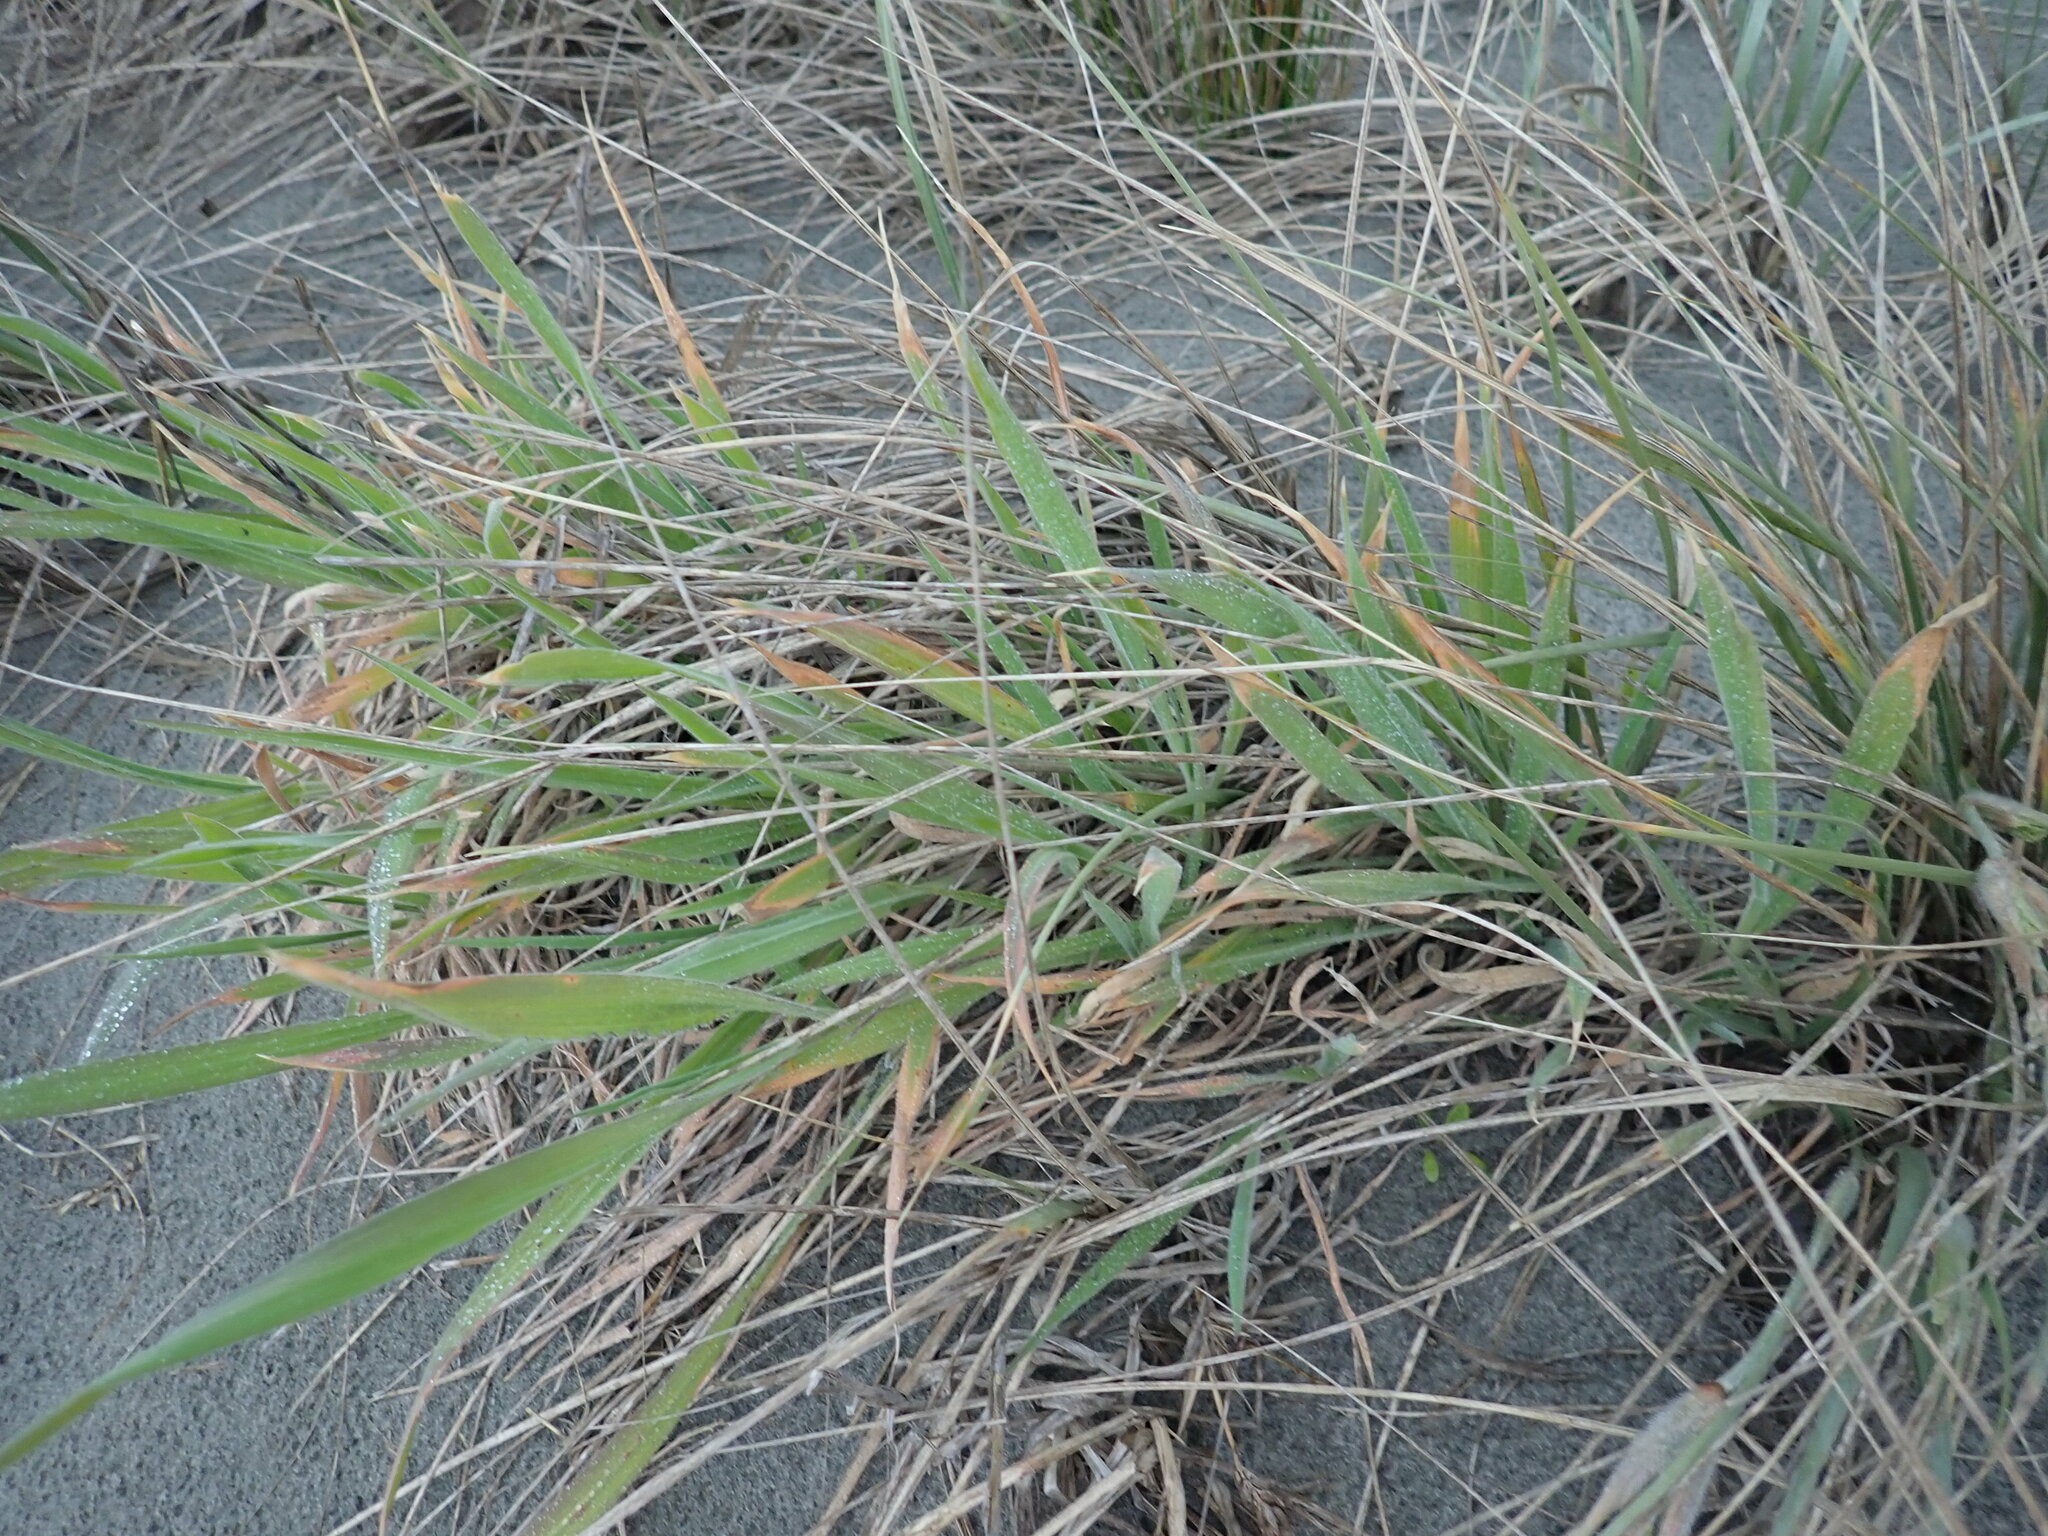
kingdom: Plantae
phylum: Tracheophyta
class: Liliopsida
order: Poales
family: Poaceae
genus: Lachnagrostis
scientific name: Lachnagrostis billardierei
